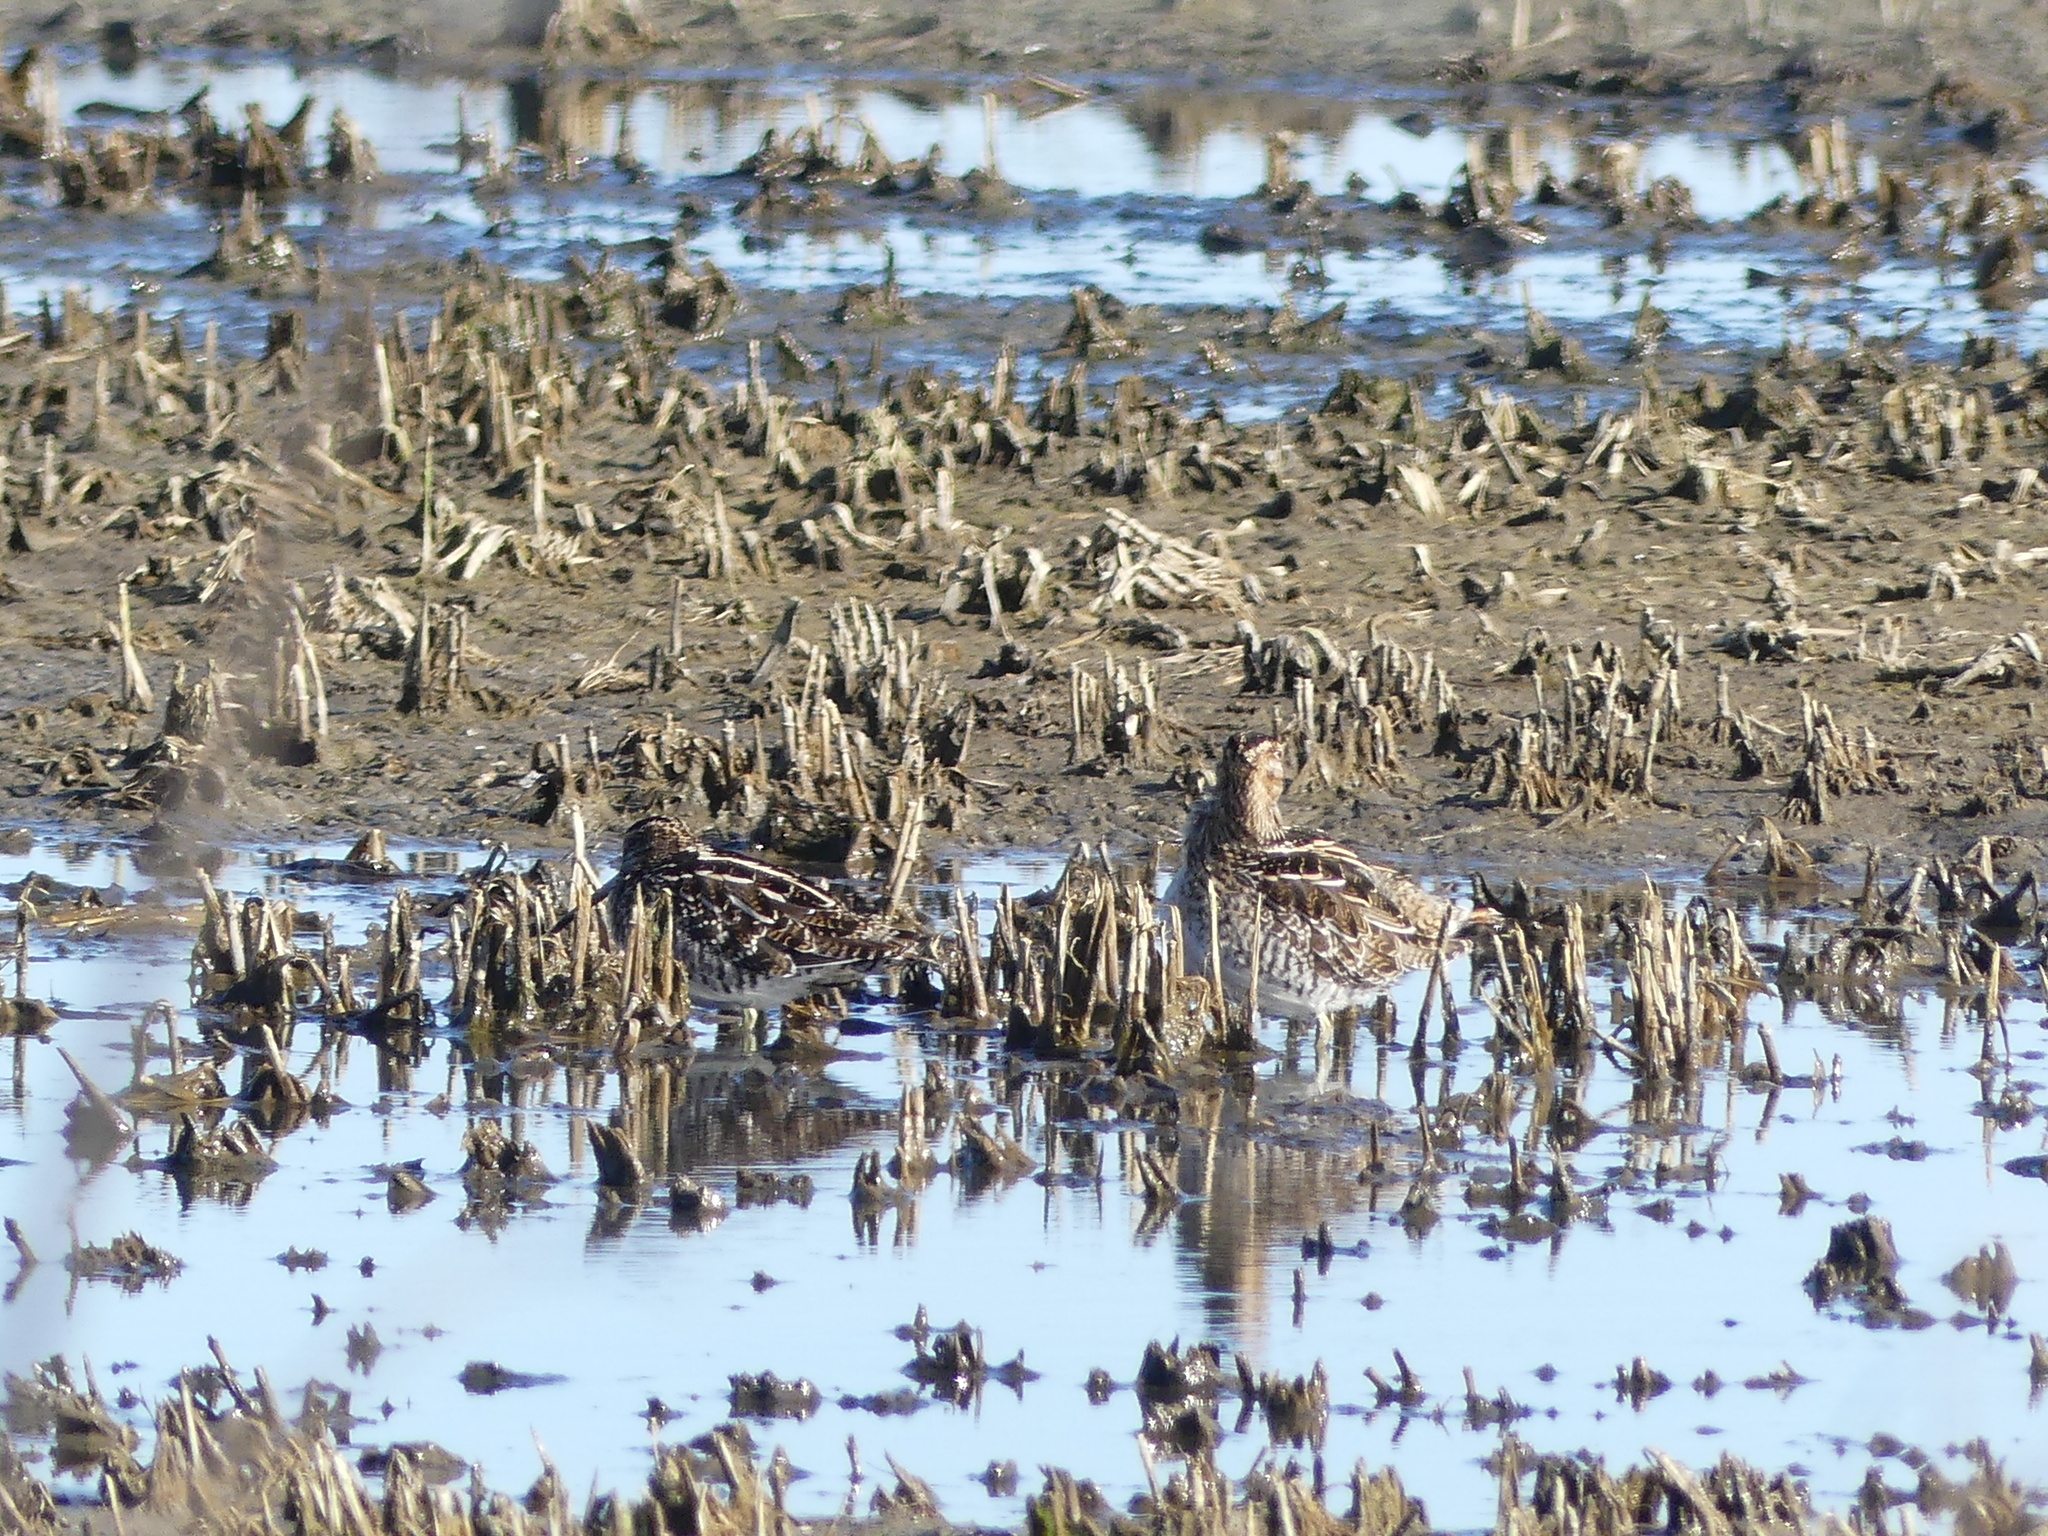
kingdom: Animalia
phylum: Chordata
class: Aves
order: Charadriiformes
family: Scolopacidae
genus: Gallinago
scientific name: Gallinago delicata
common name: Wilson's snipe
